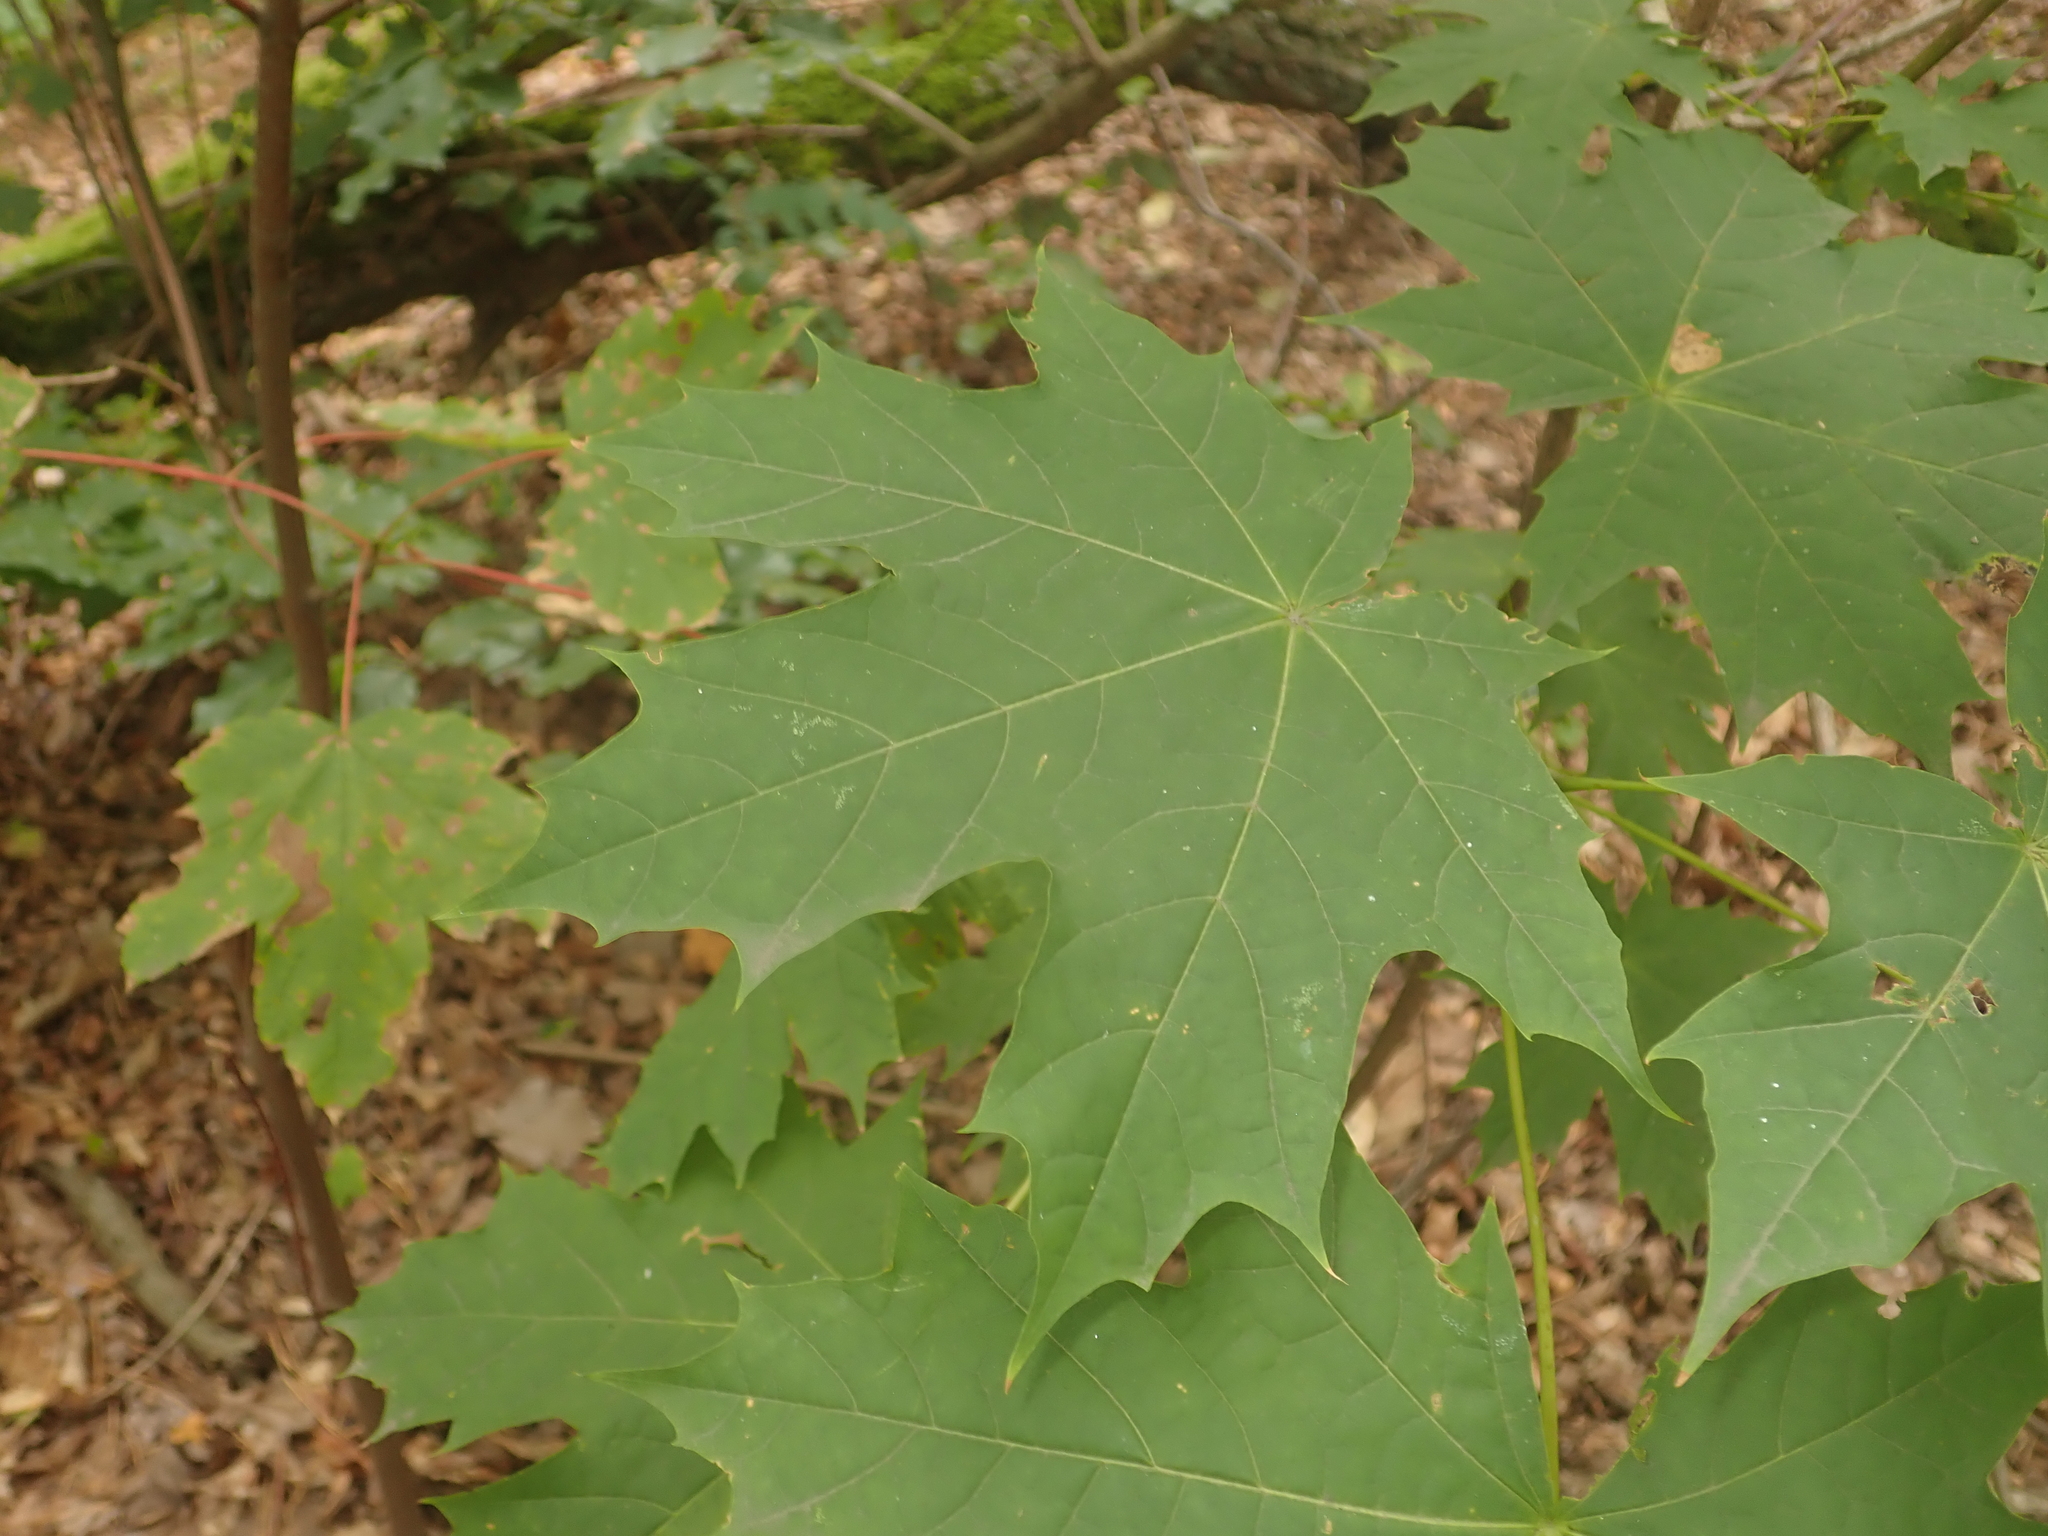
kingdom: Plantae
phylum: Tracheophyta
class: Magnoliopsida
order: Sapindales
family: Sapindaceae
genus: Acer
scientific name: Acer platanoides
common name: Norway maple
